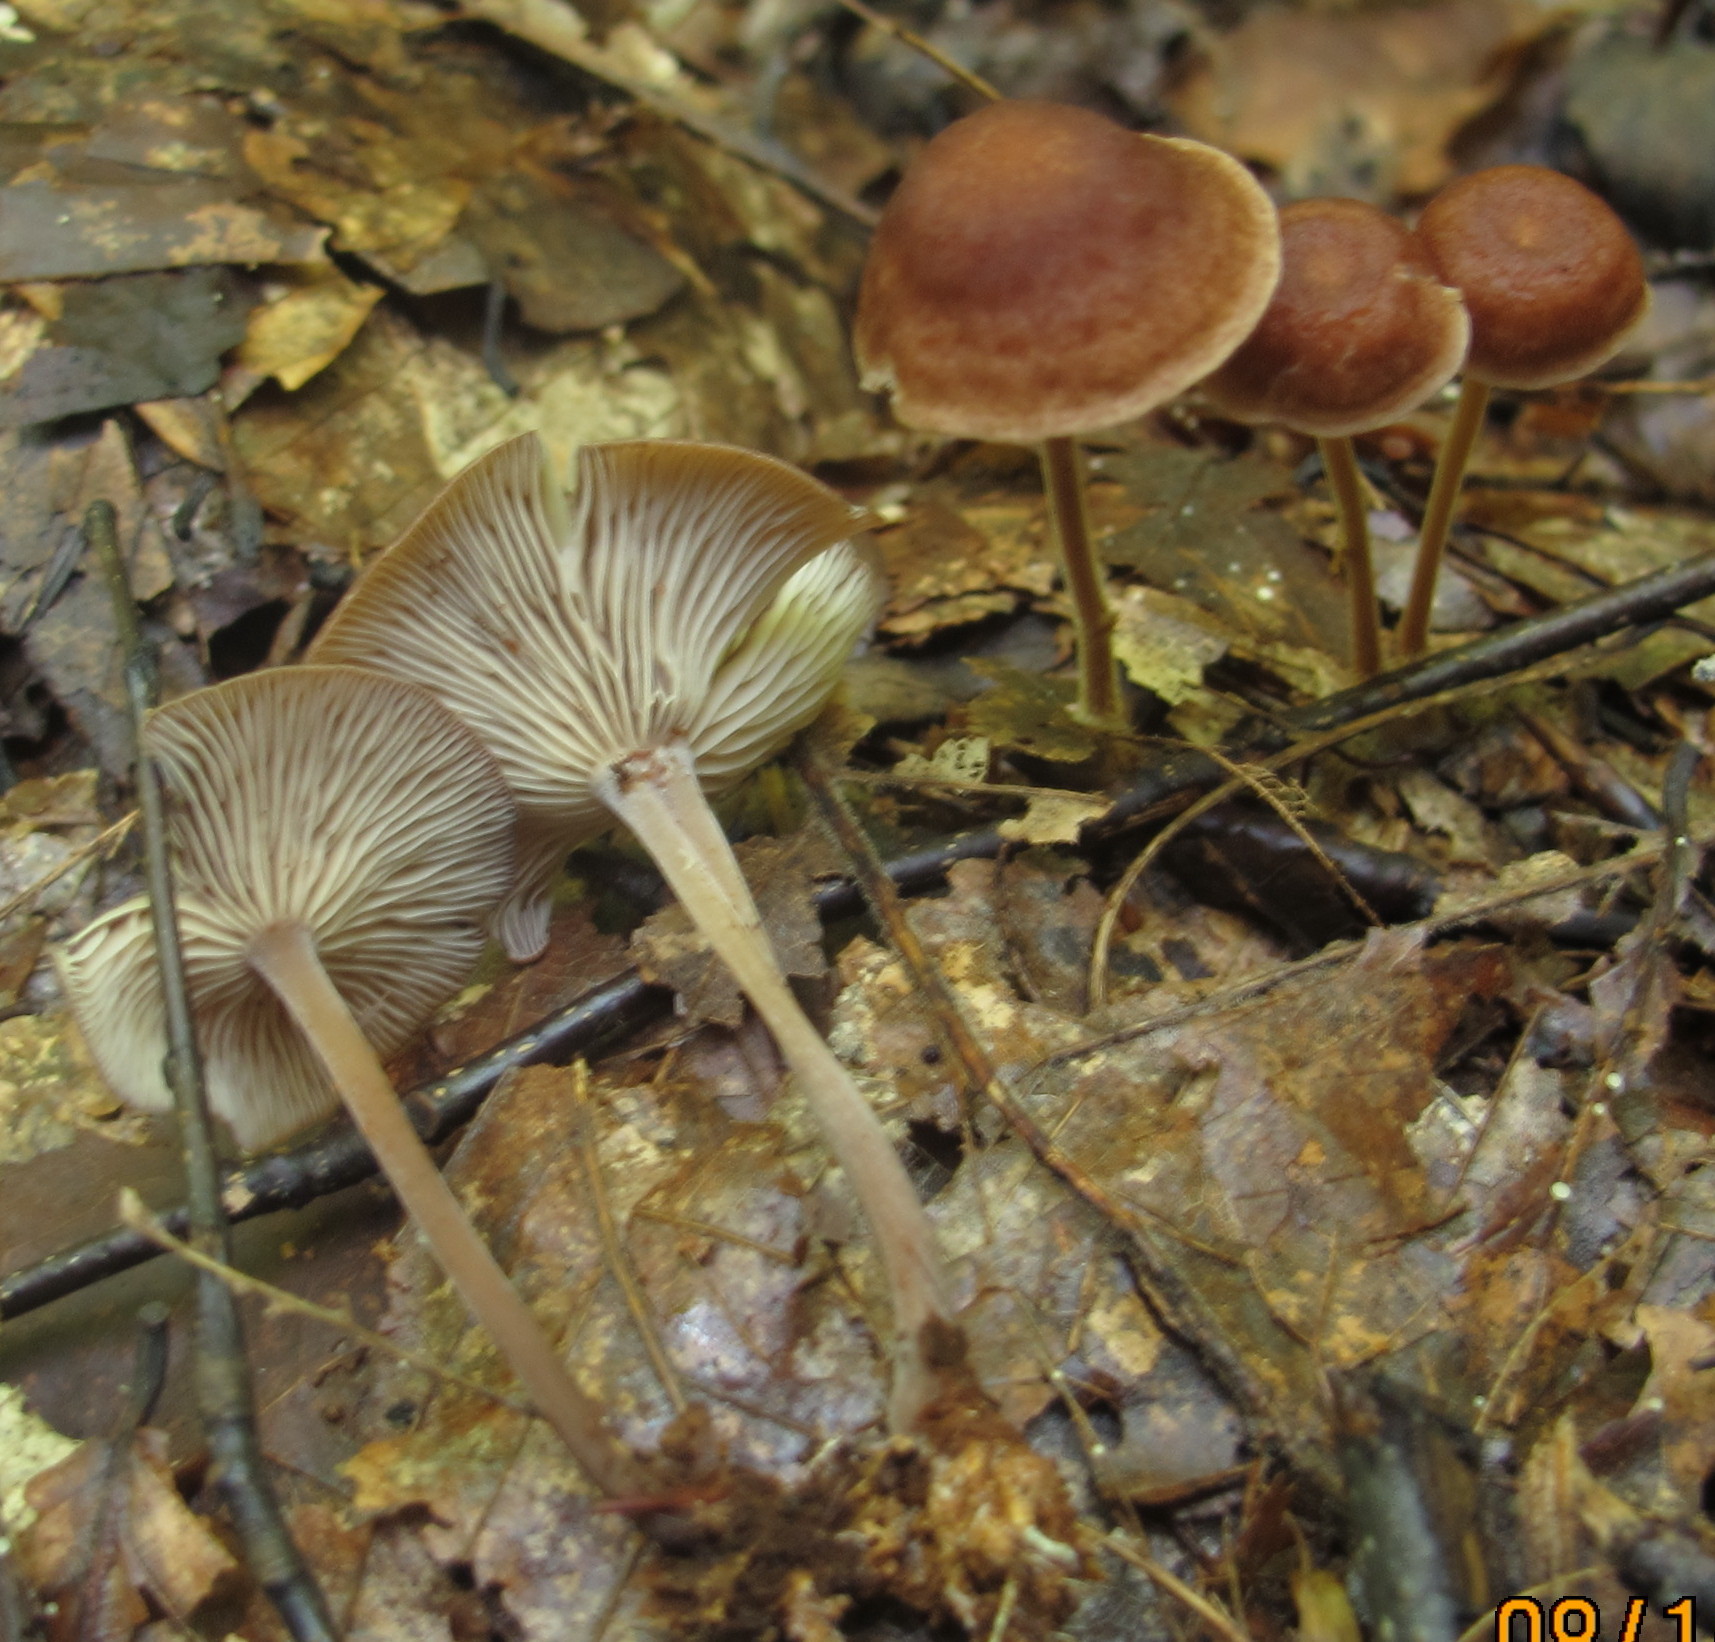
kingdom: Fungi
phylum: Basidiomycota
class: Agaricomycetes
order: Agaricales
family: Omphalotaceae
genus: Collybiopsis
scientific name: Collybiopsis subnuda
